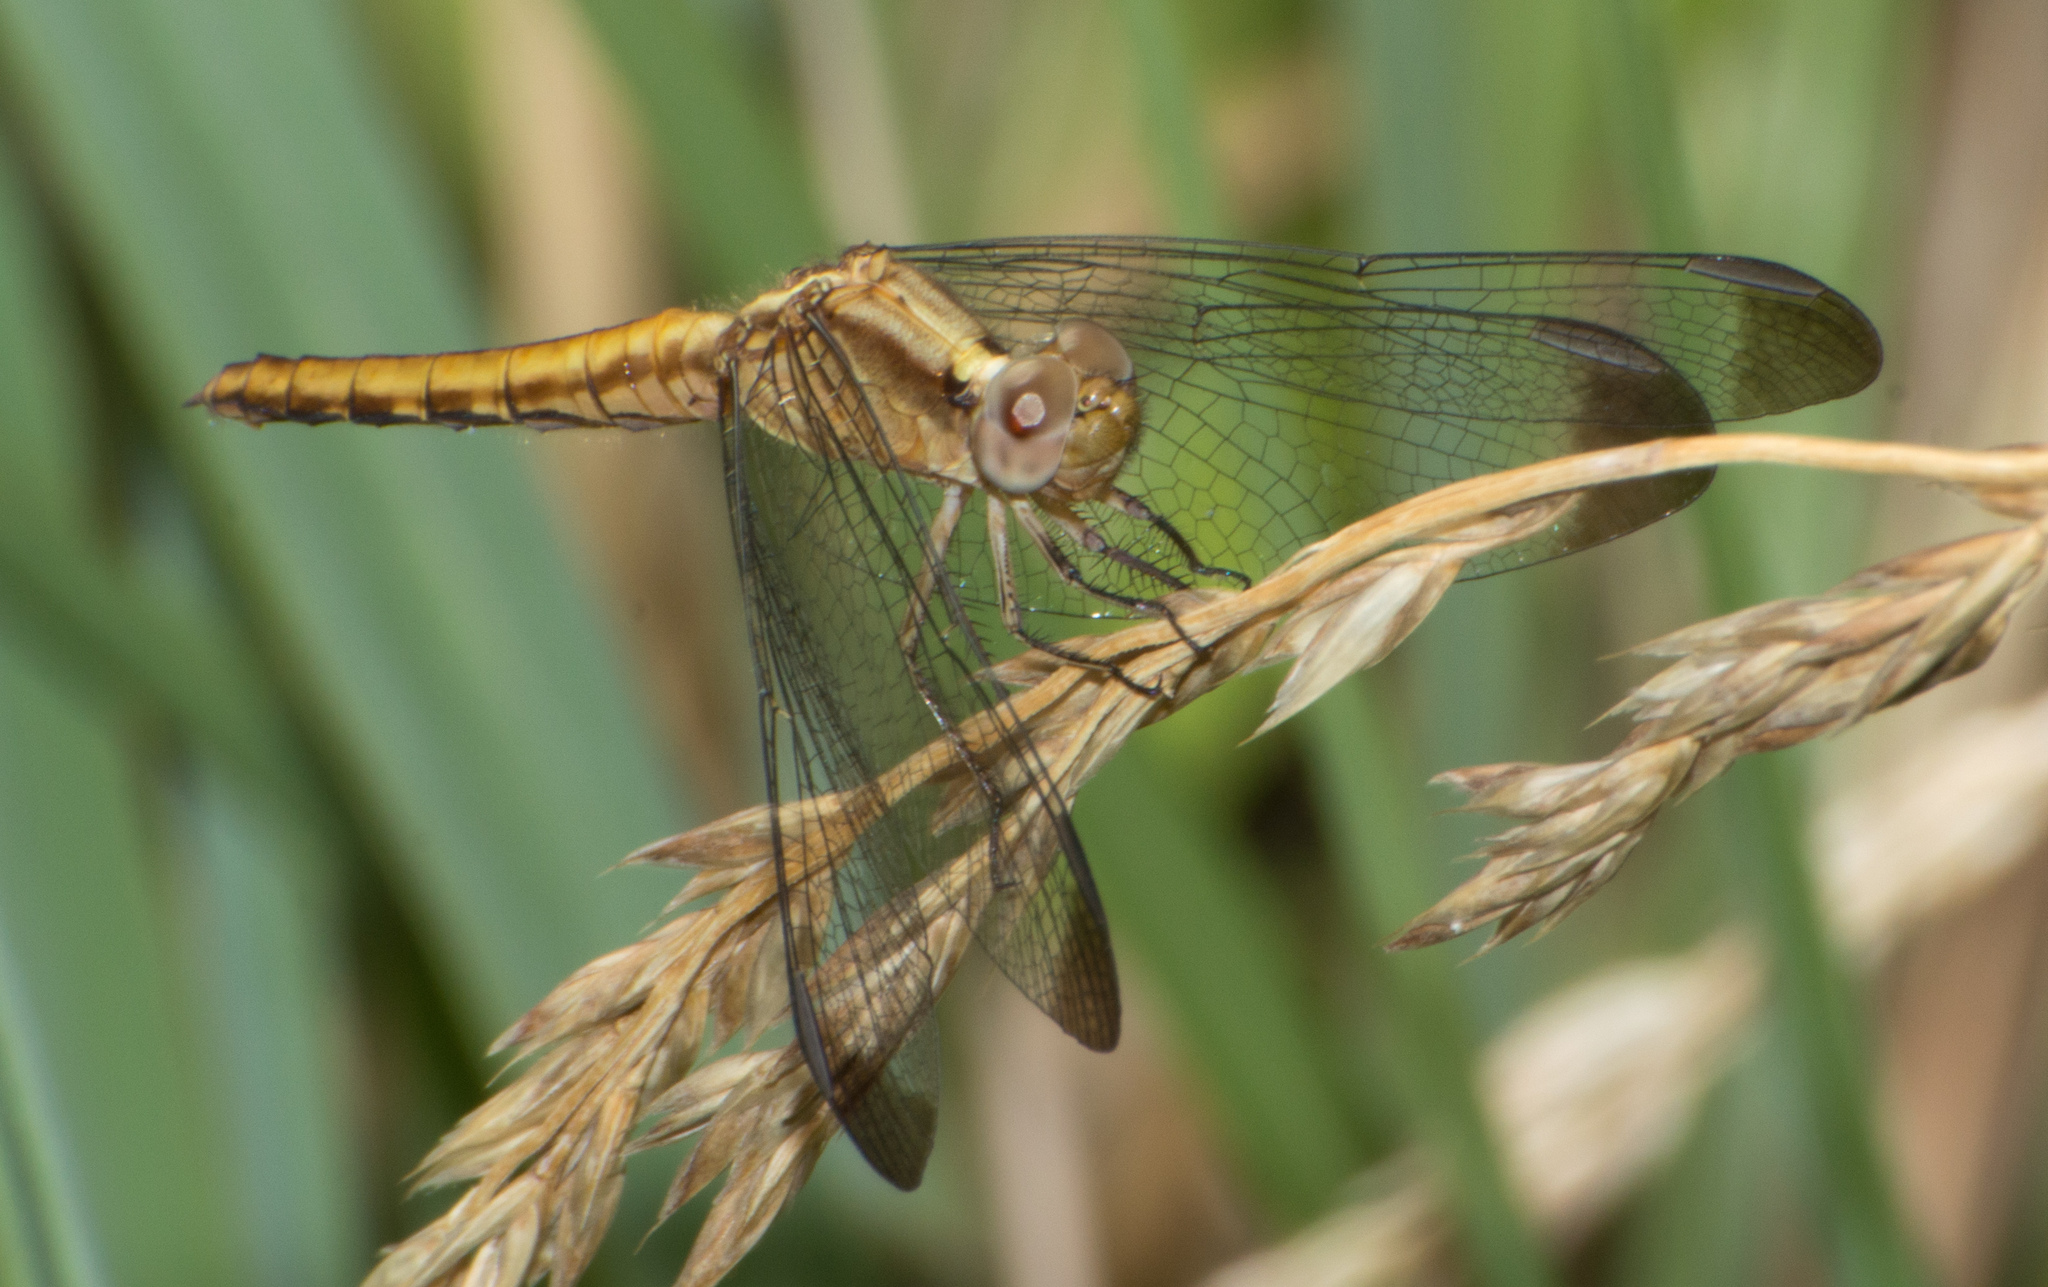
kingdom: Animalia
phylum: Arthropoda
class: Insecta
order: Odonata
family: Libellulidae
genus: Erythrodiplax
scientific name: Erythrodiplax atroterminata
